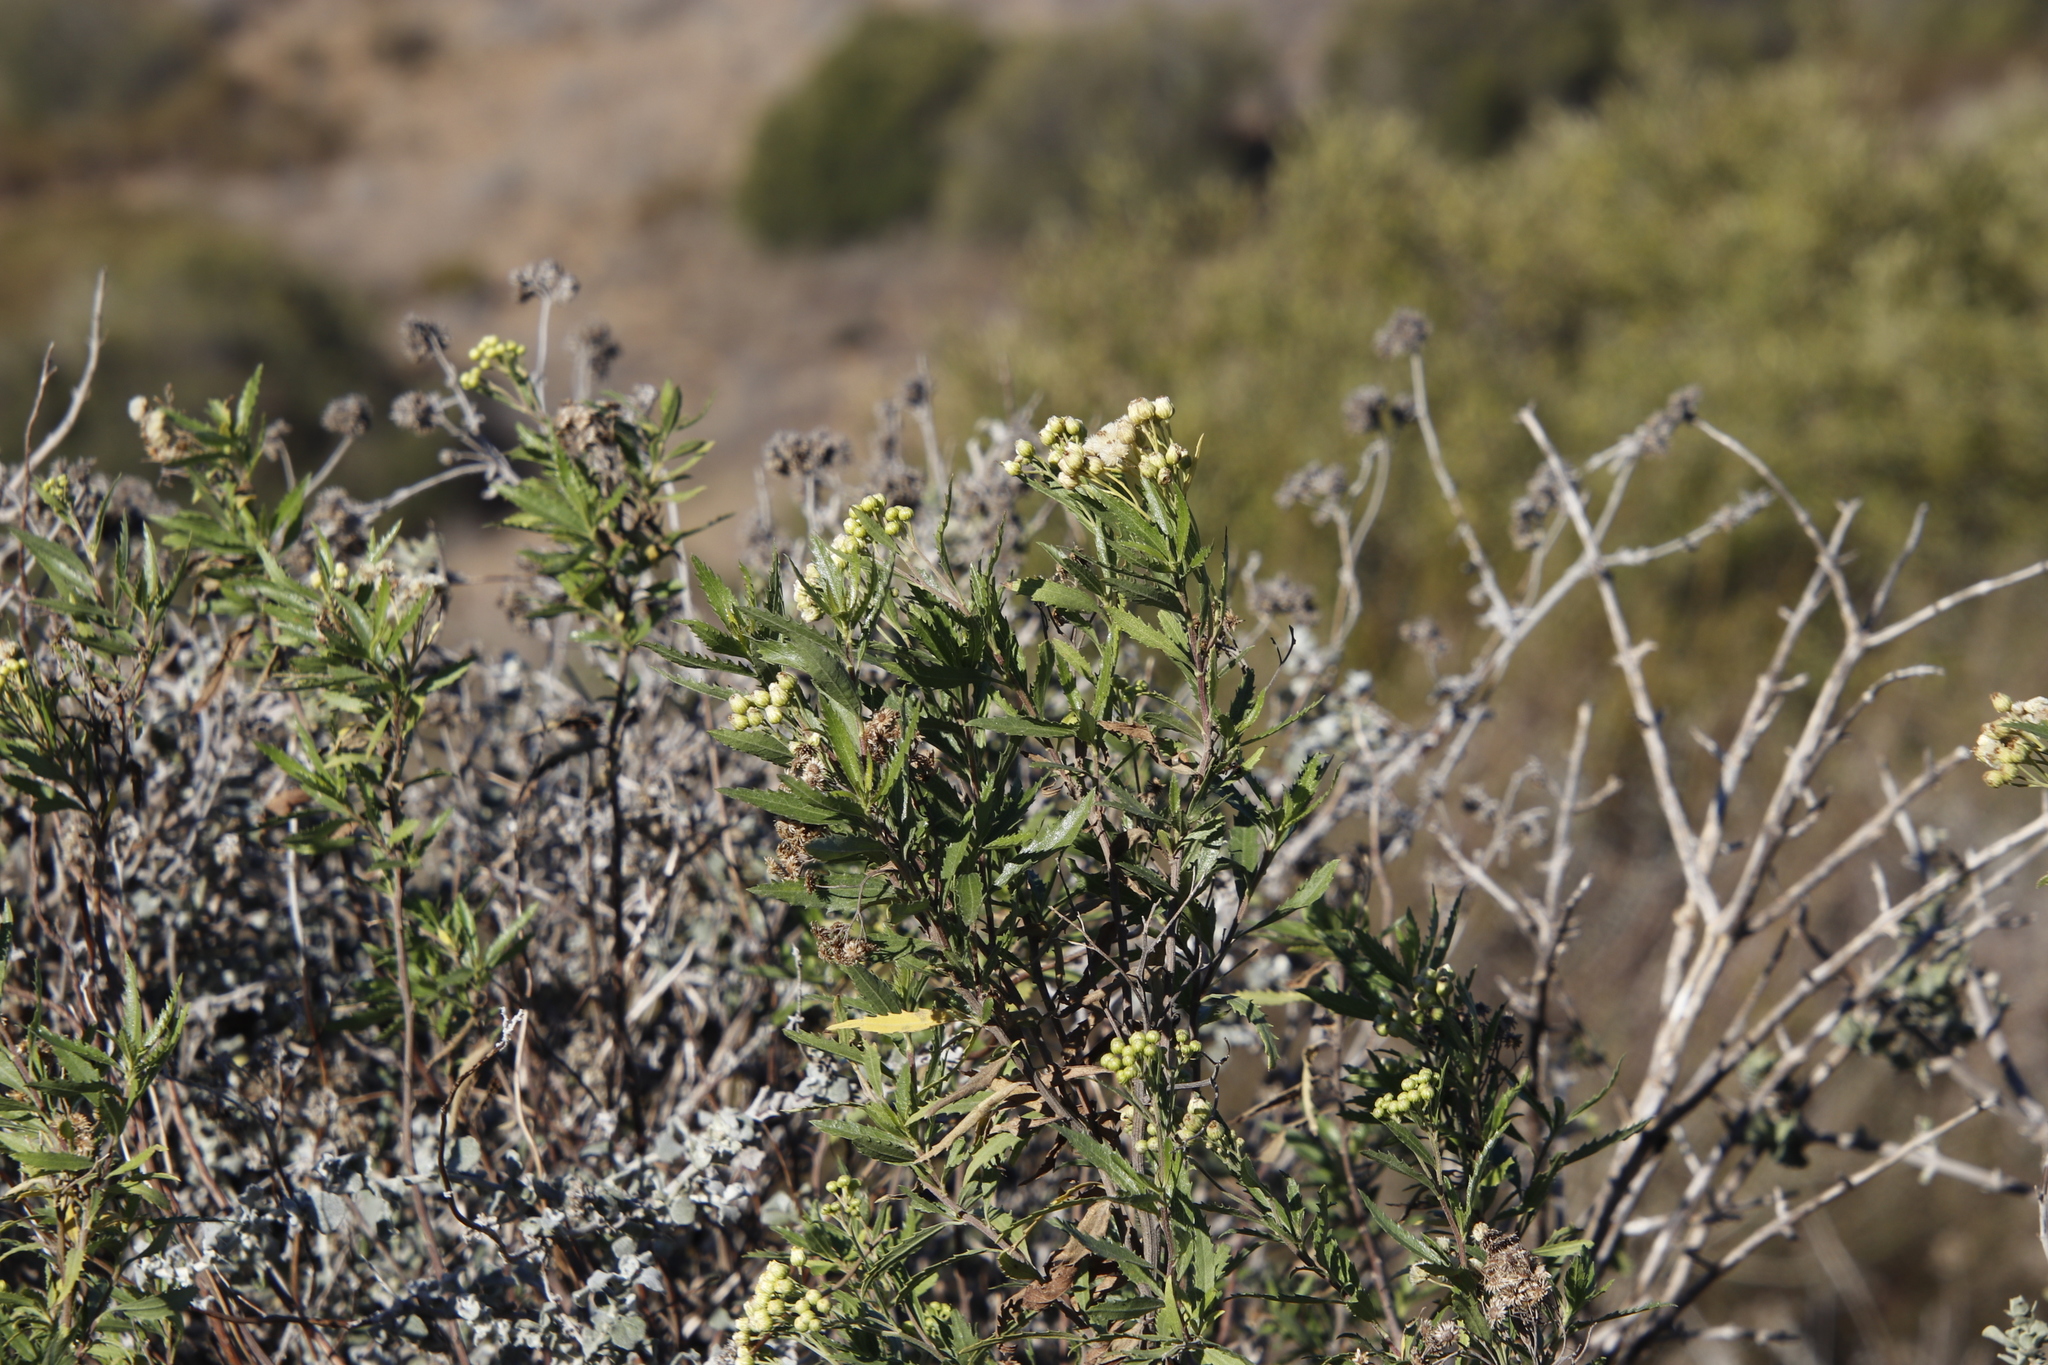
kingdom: Plantae
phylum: Tracheophyta
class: Magnoliopsida
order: Asterales
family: Asteraceae
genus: Nidorella
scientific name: Nidorella ivifolia
